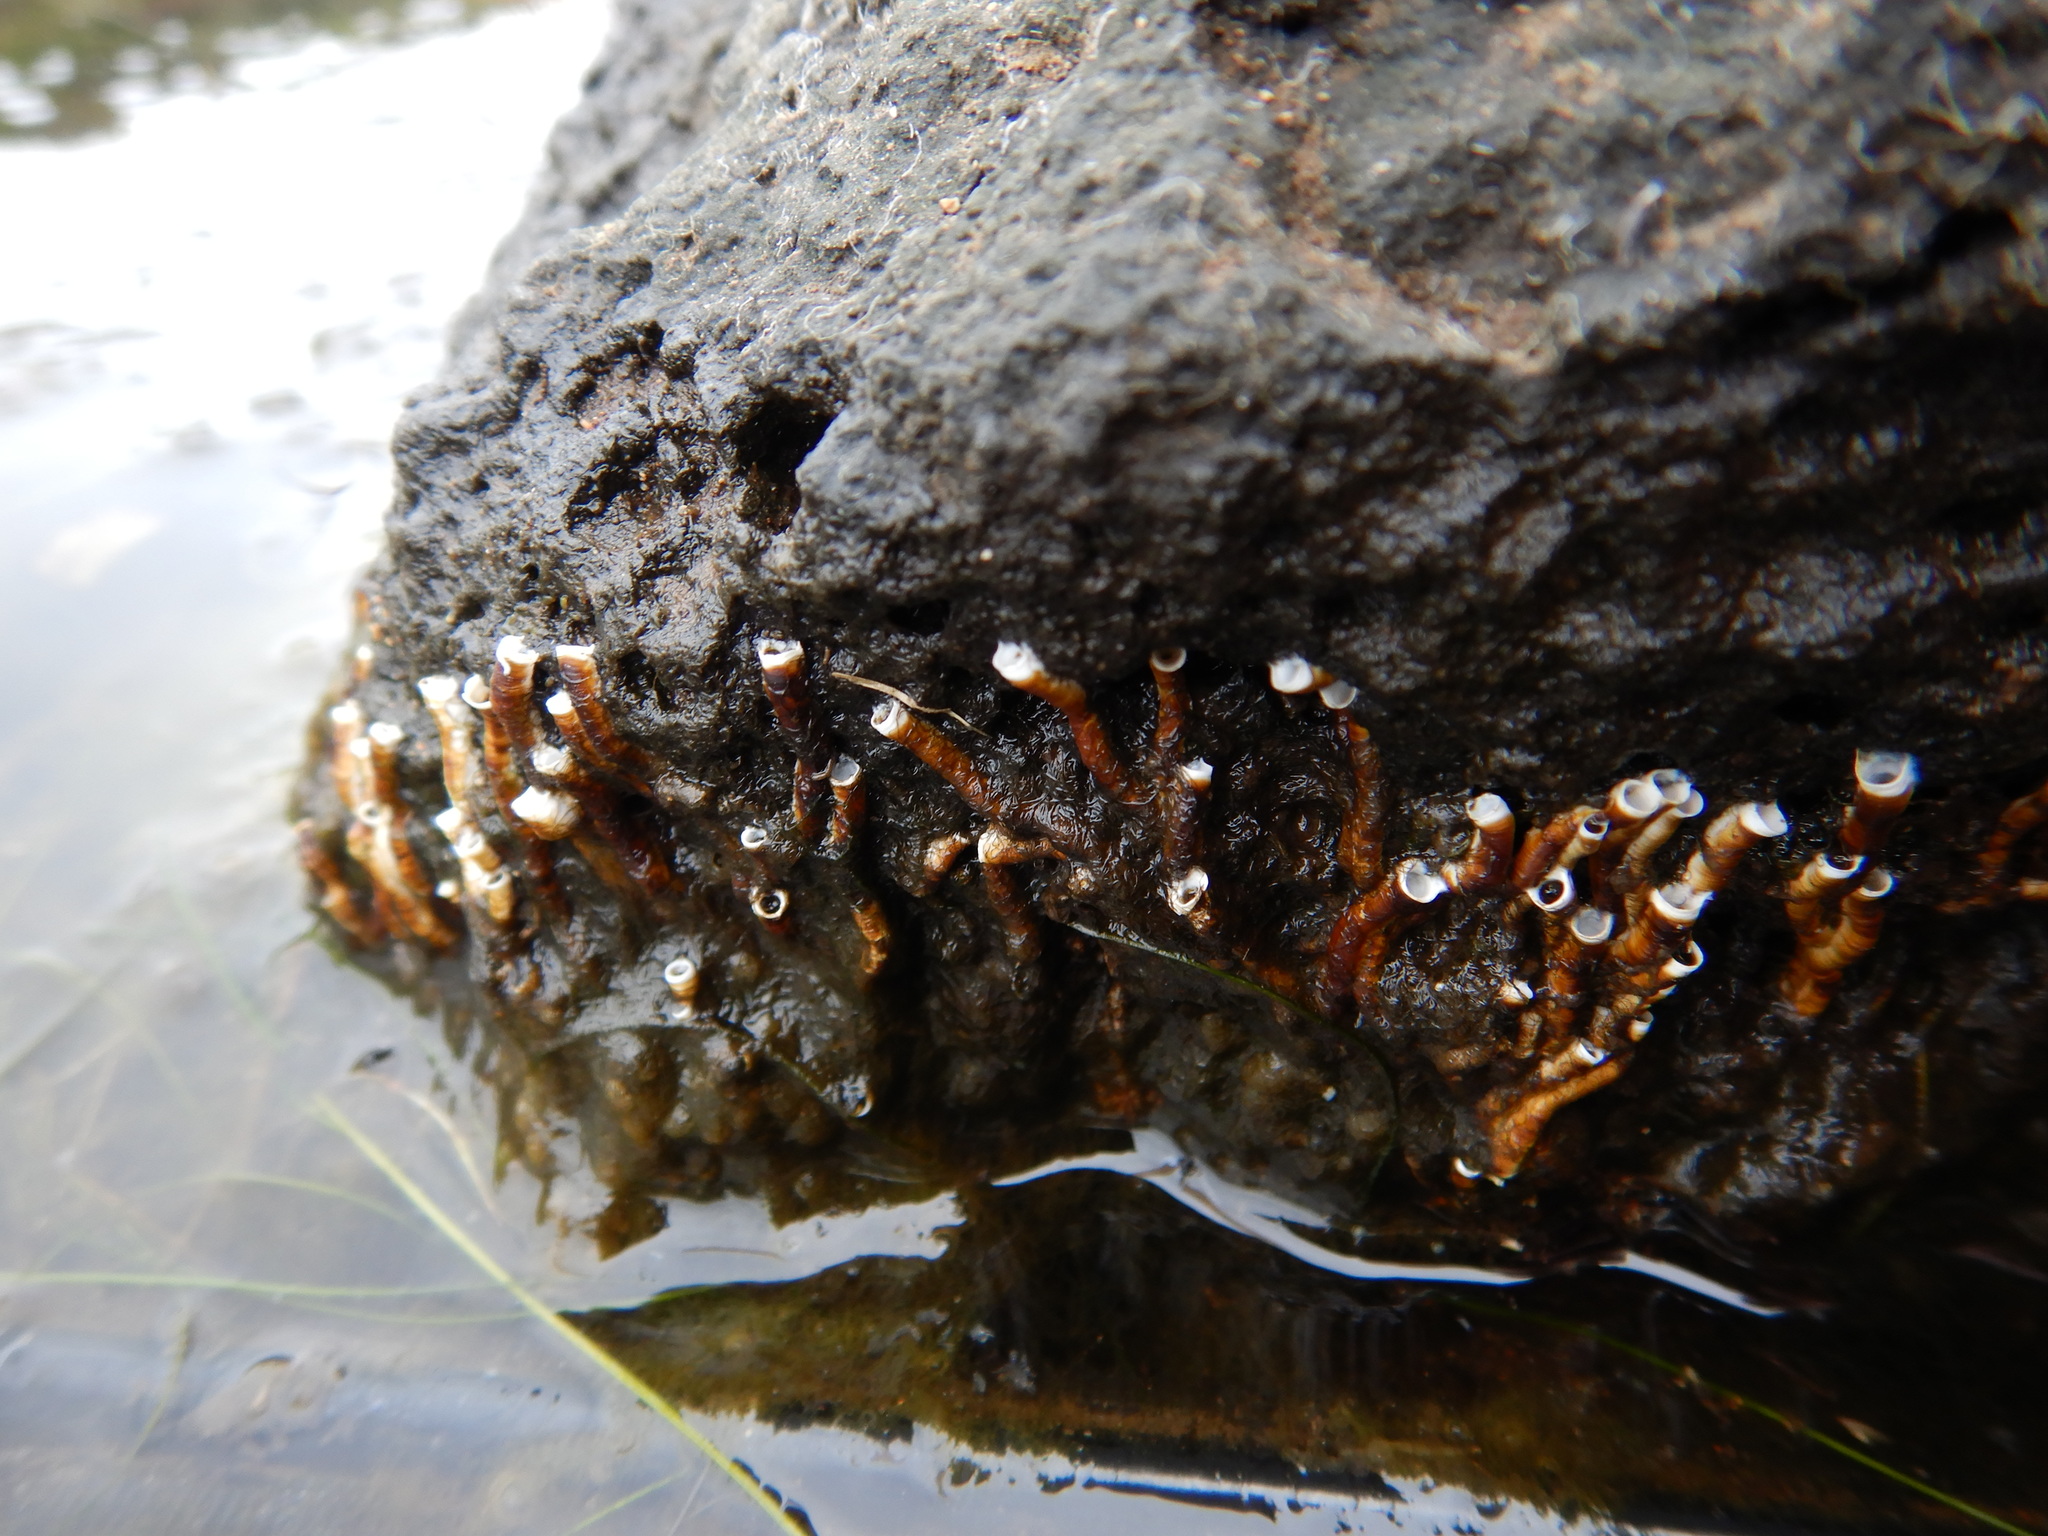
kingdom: Animalia
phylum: Annelida
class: Polychaeta
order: Sabellida
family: Serpulidae
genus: Ficopomatus
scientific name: Ficopomatus enigmaticus
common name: Australian tubeworm
